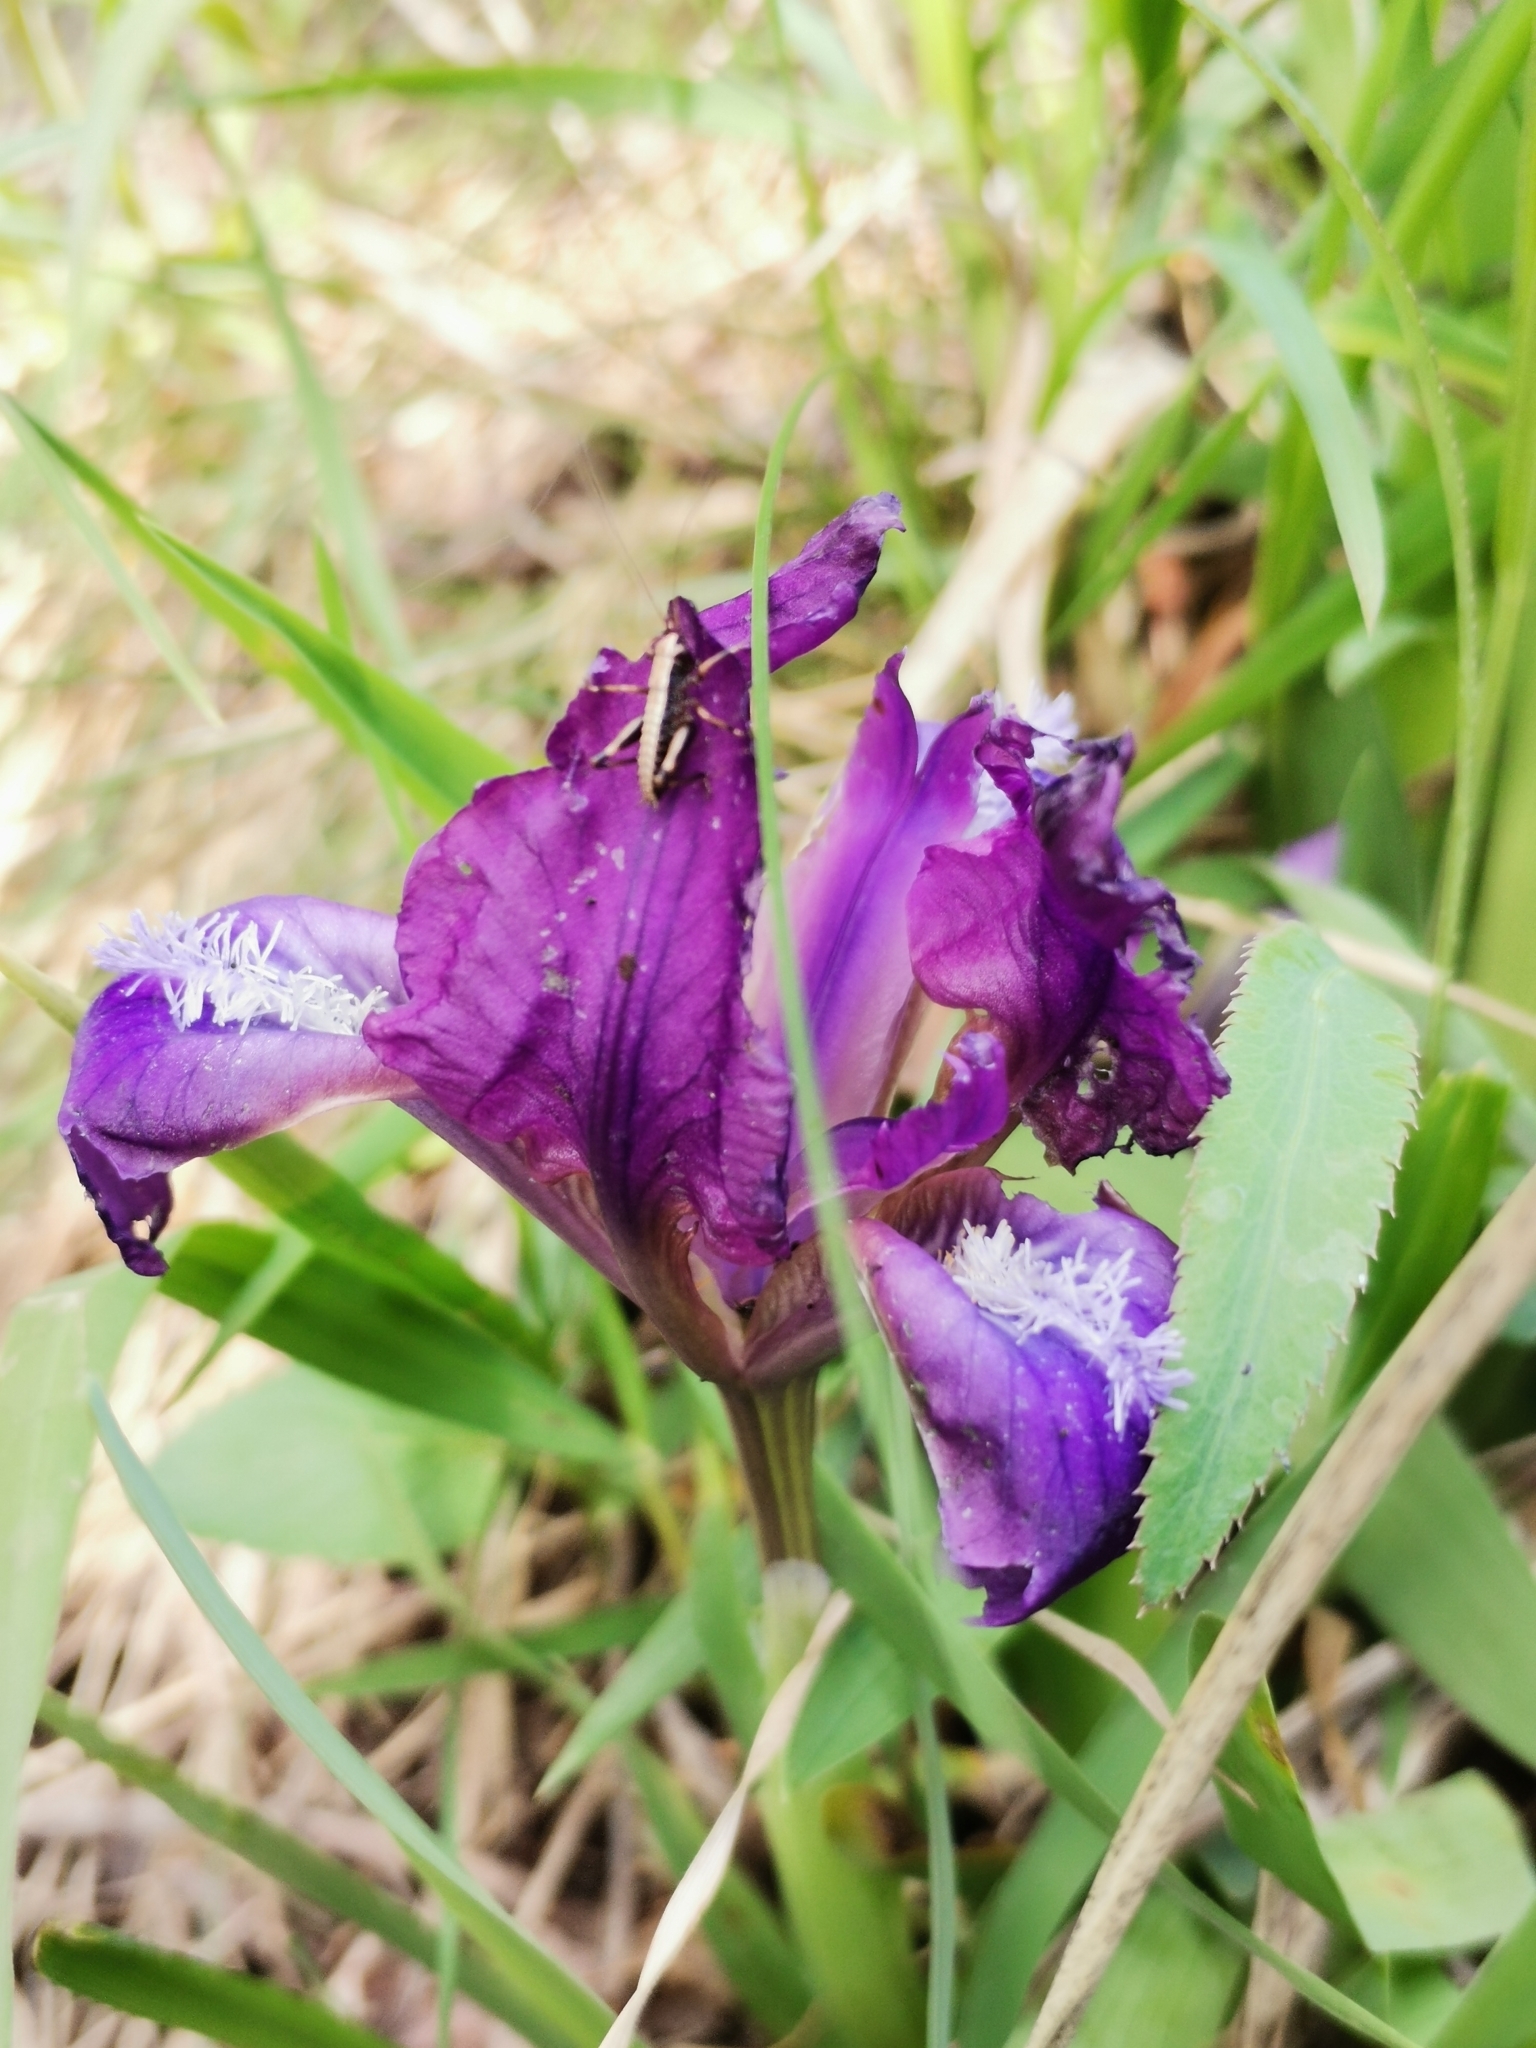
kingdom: Plantae
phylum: Tracheophyta
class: Liliopsida
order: Asparagales
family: Iridaceae
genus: Iris
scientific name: Iris pumila
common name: Dwarf iris
